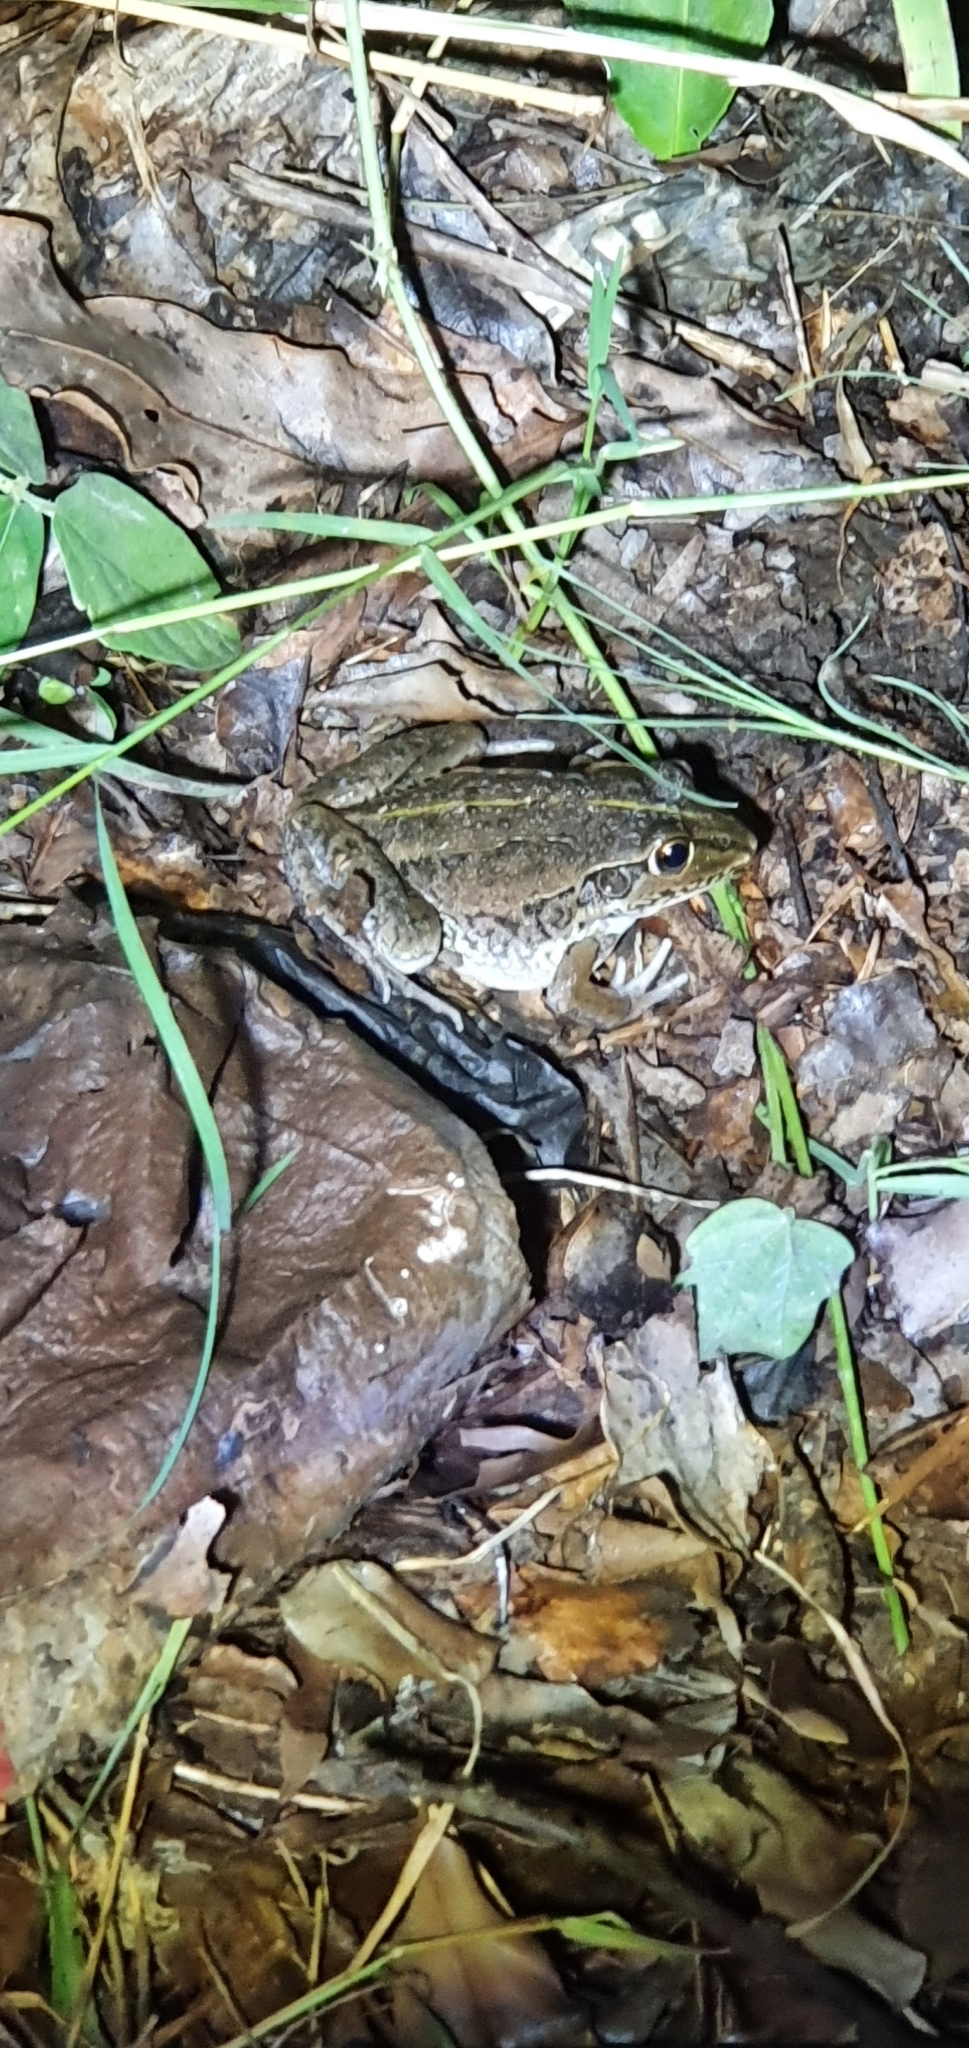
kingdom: Animalia
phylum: Chordata
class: Amphibia
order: Anura
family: Pelodryadidae
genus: Ranoidea
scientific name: Ranoidea alboguttata
